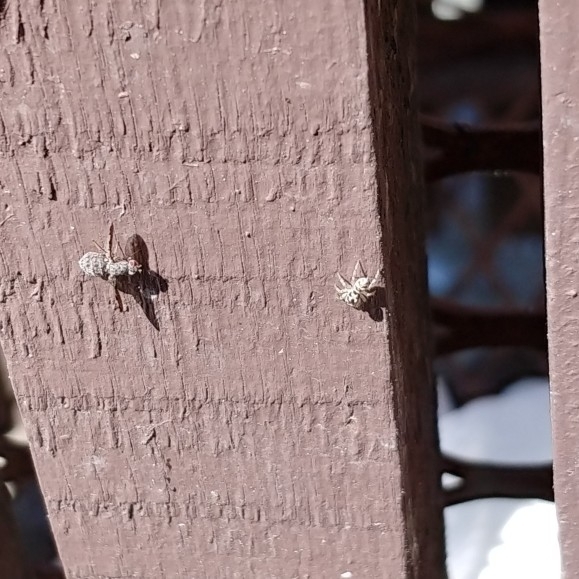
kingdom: Animalia
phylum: Arthropoda
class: Arachnida
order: Araneae
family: Salticidae
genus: Salticus
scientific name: Salticus scenicus
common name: Zebra jumper
